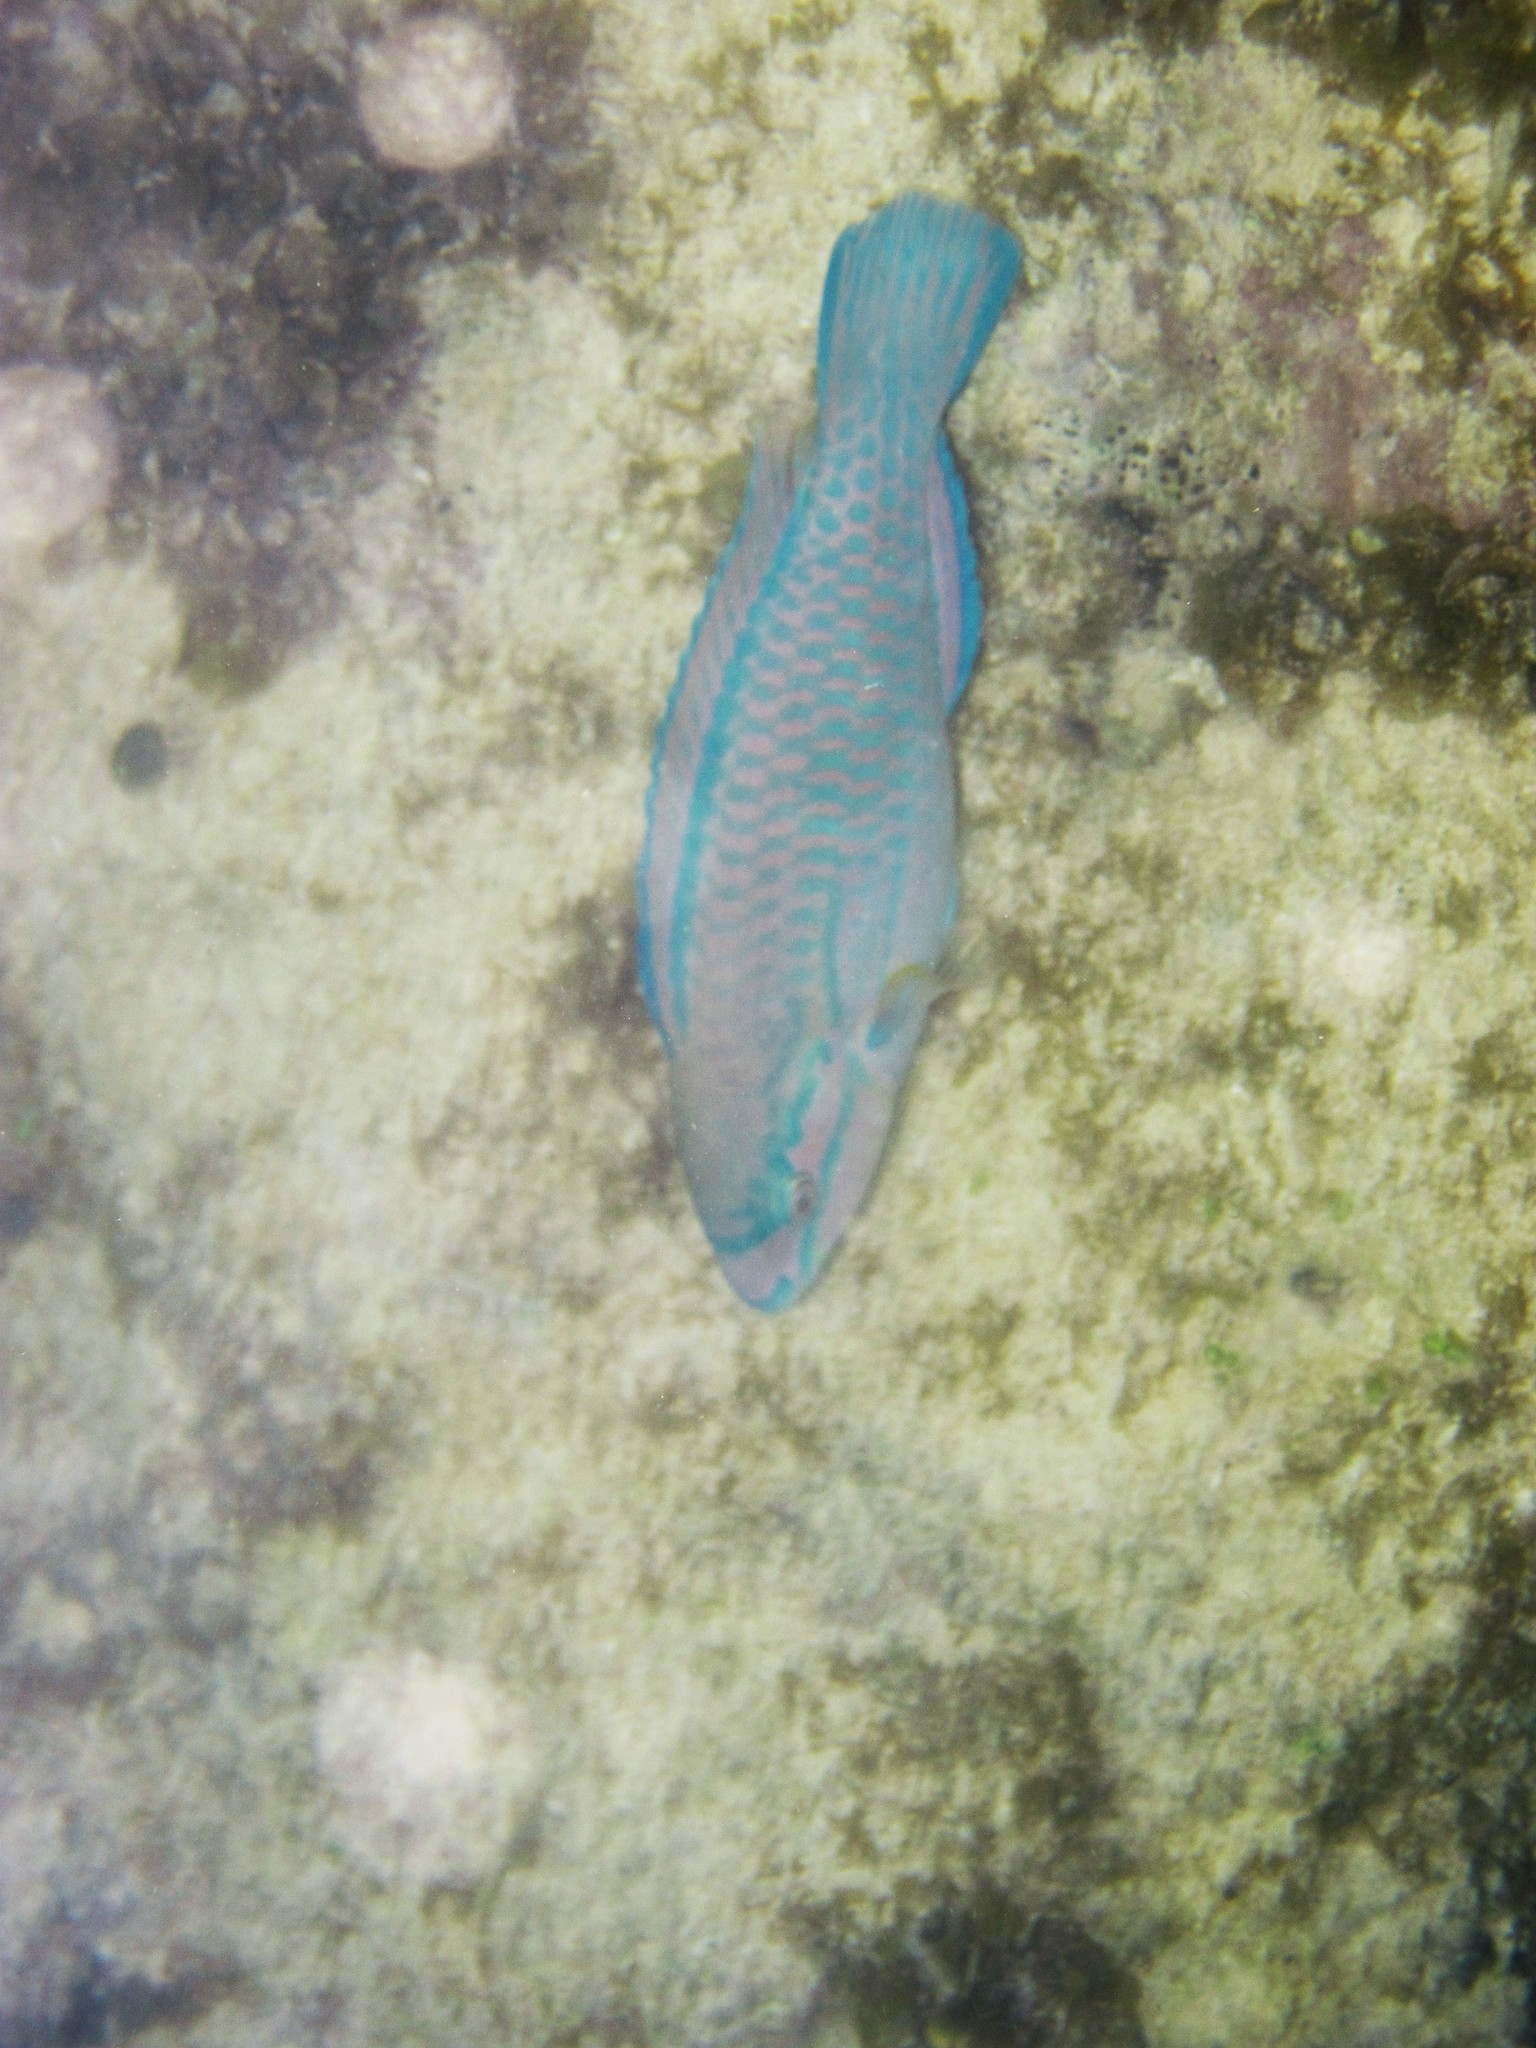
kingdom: Animalia
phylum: Chordata
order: Perciformes
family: Scaridae
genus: Scarus
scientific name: Scarus iseri
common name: Striped parrotfish
